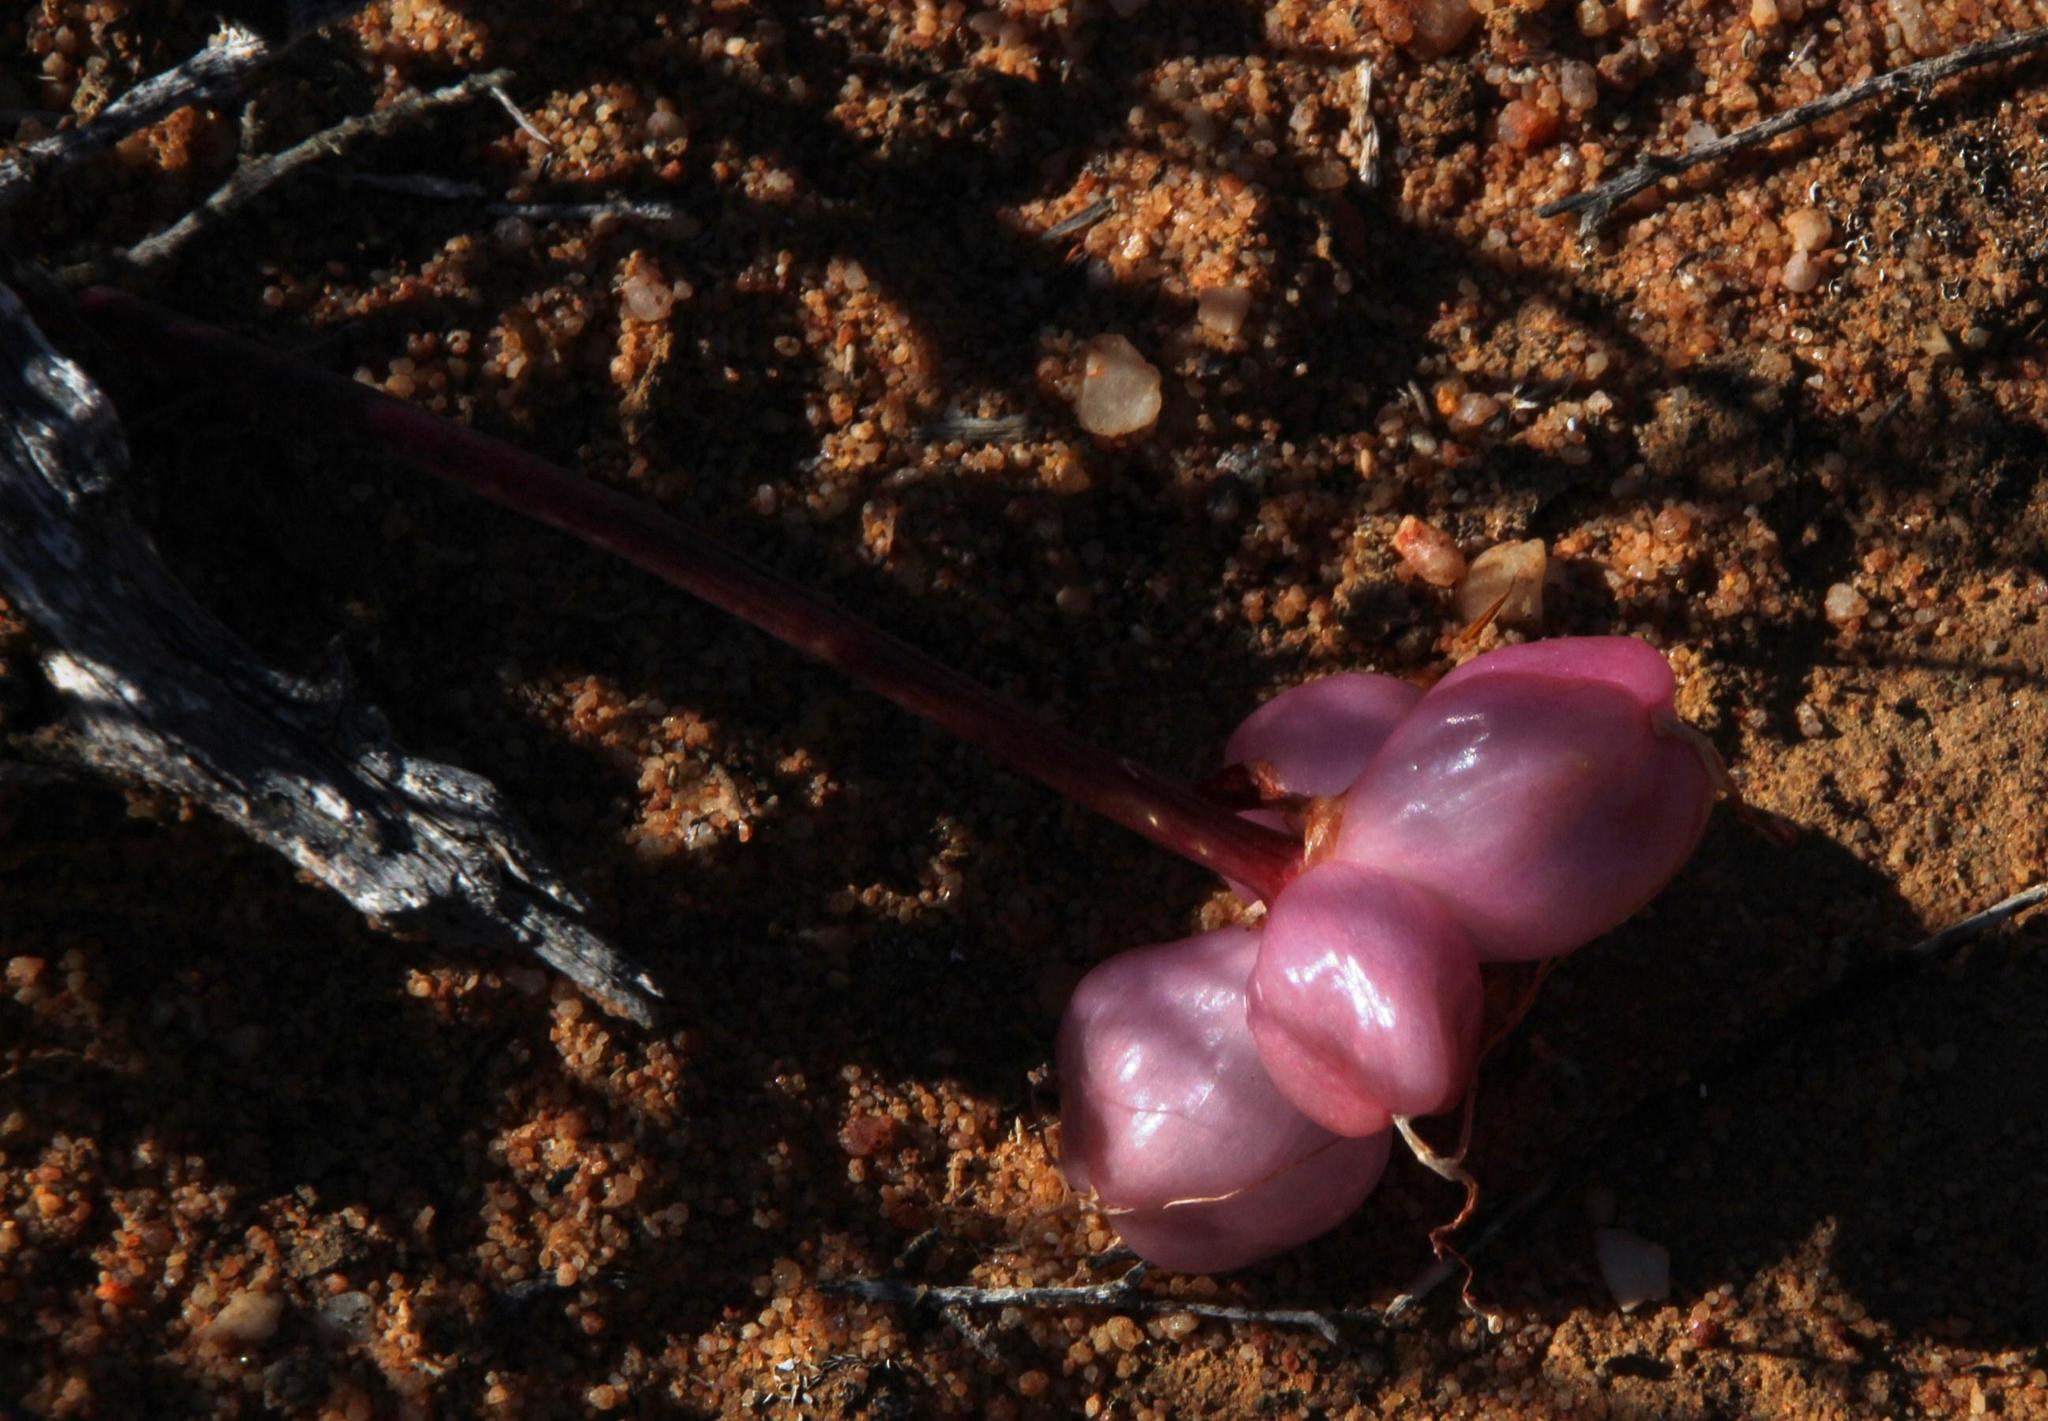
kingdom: Plantae
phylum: Tracheophyta
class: Liliopsida
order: Asparagales
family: Amaryllidaceae
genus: Haemanthus
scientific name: Haemanthus crispus
